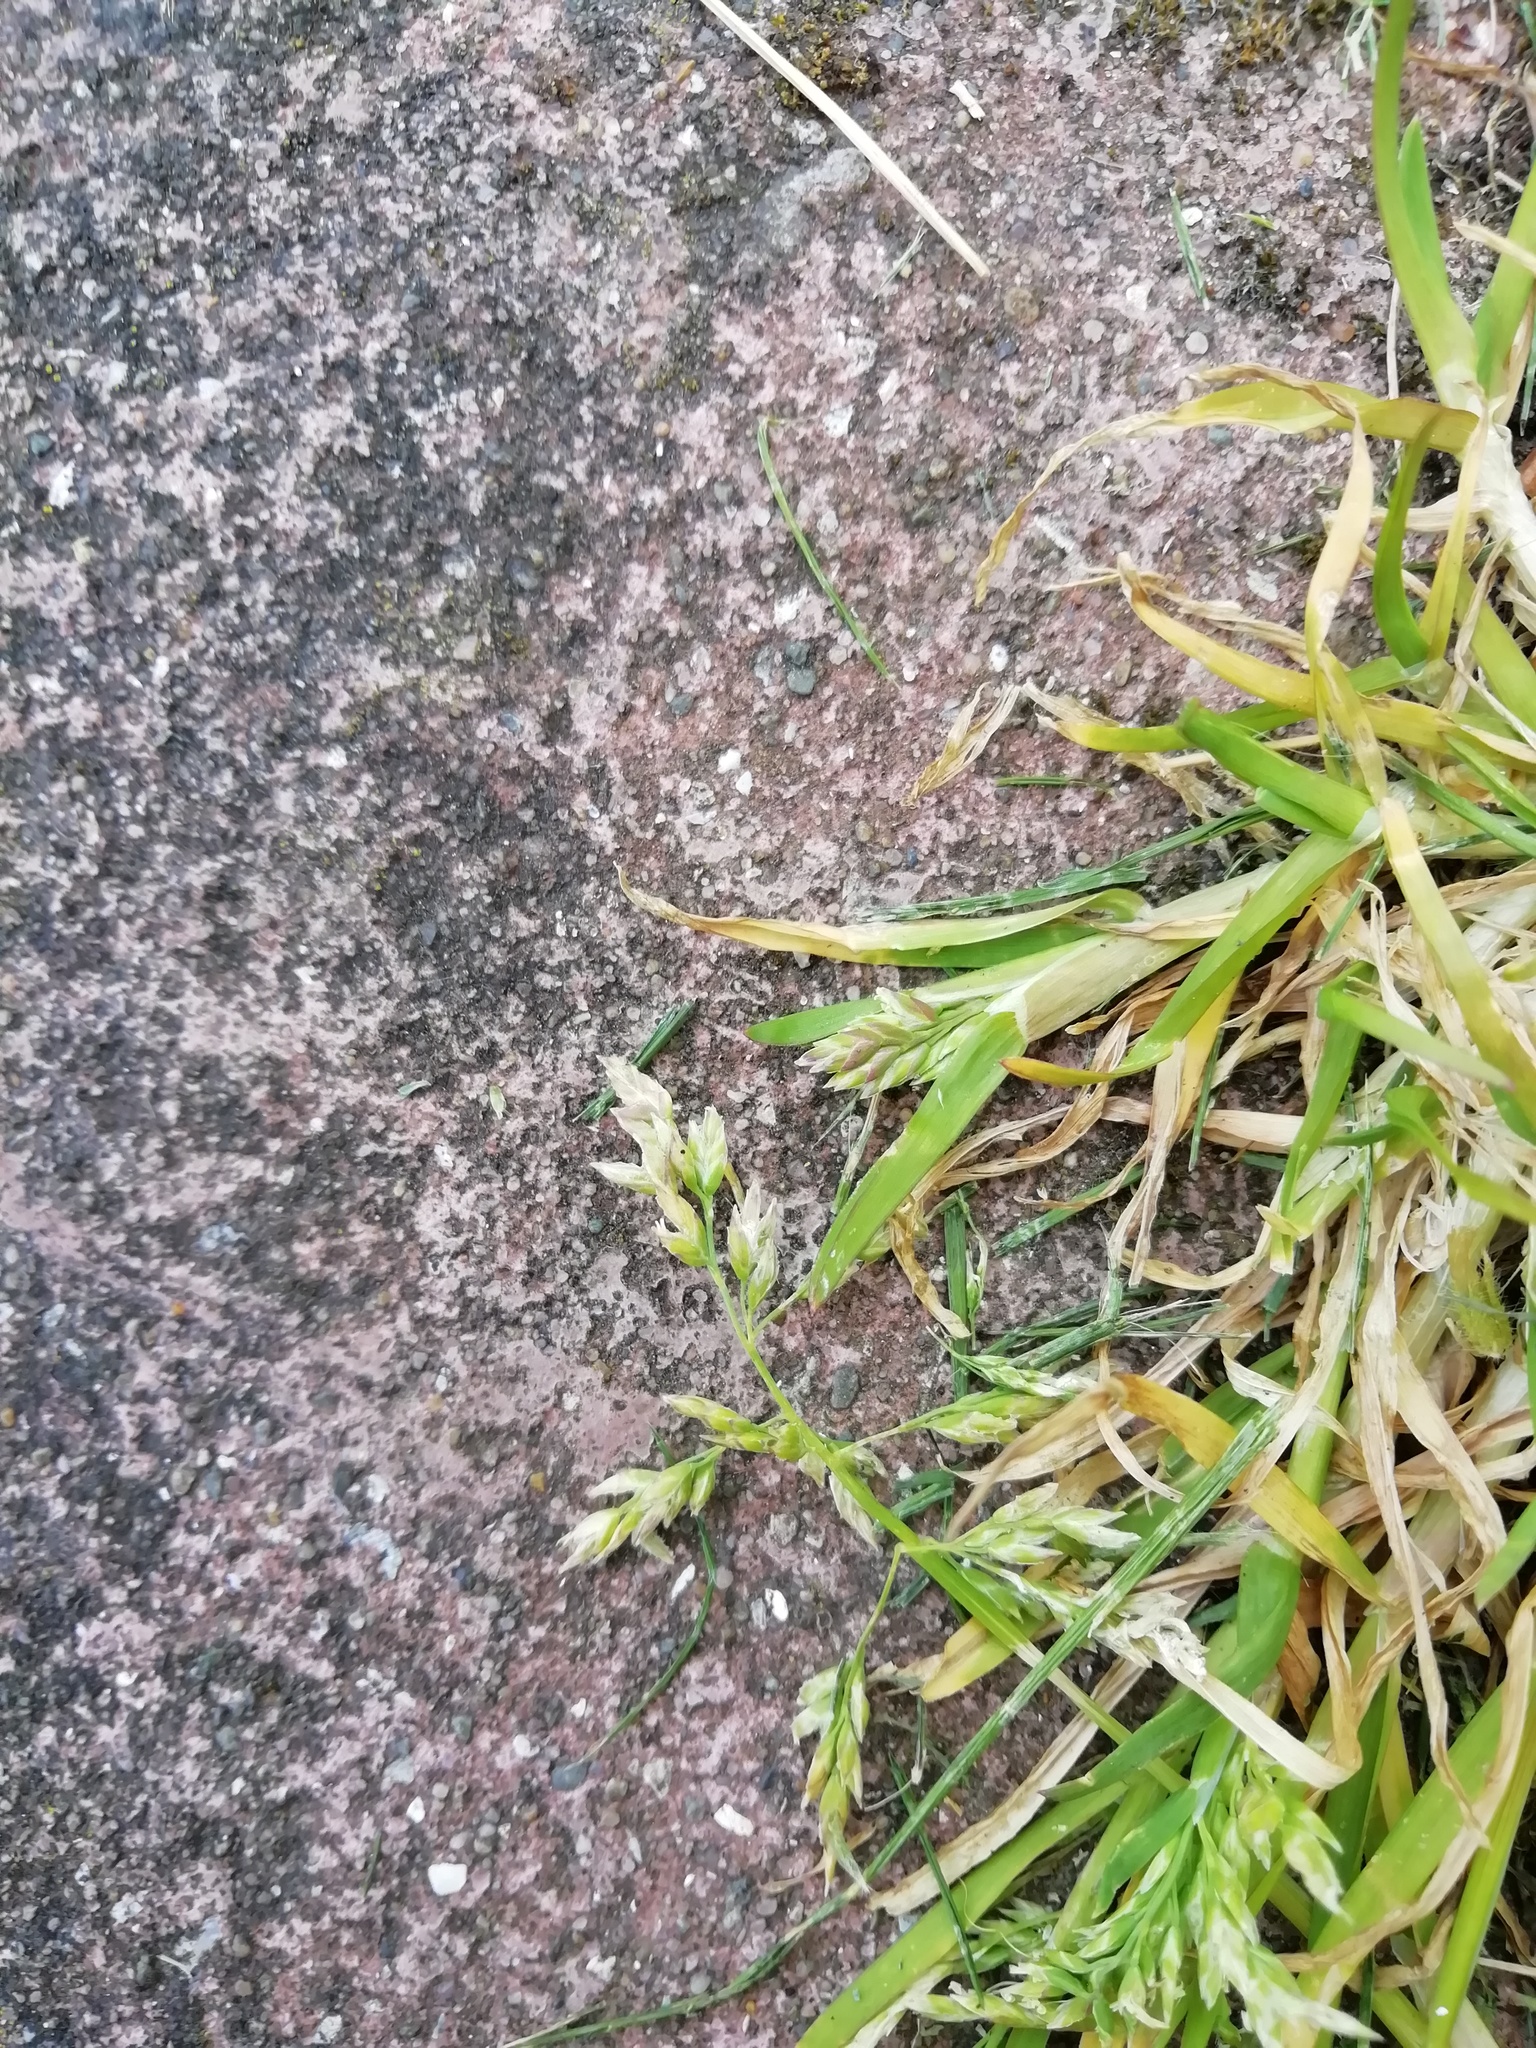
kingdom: Plantae
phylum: Tracheophyta
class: Liliopsida
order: Poales
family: Poaceae
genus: Poa
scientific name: Poa annua
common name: Annual bluegrass
